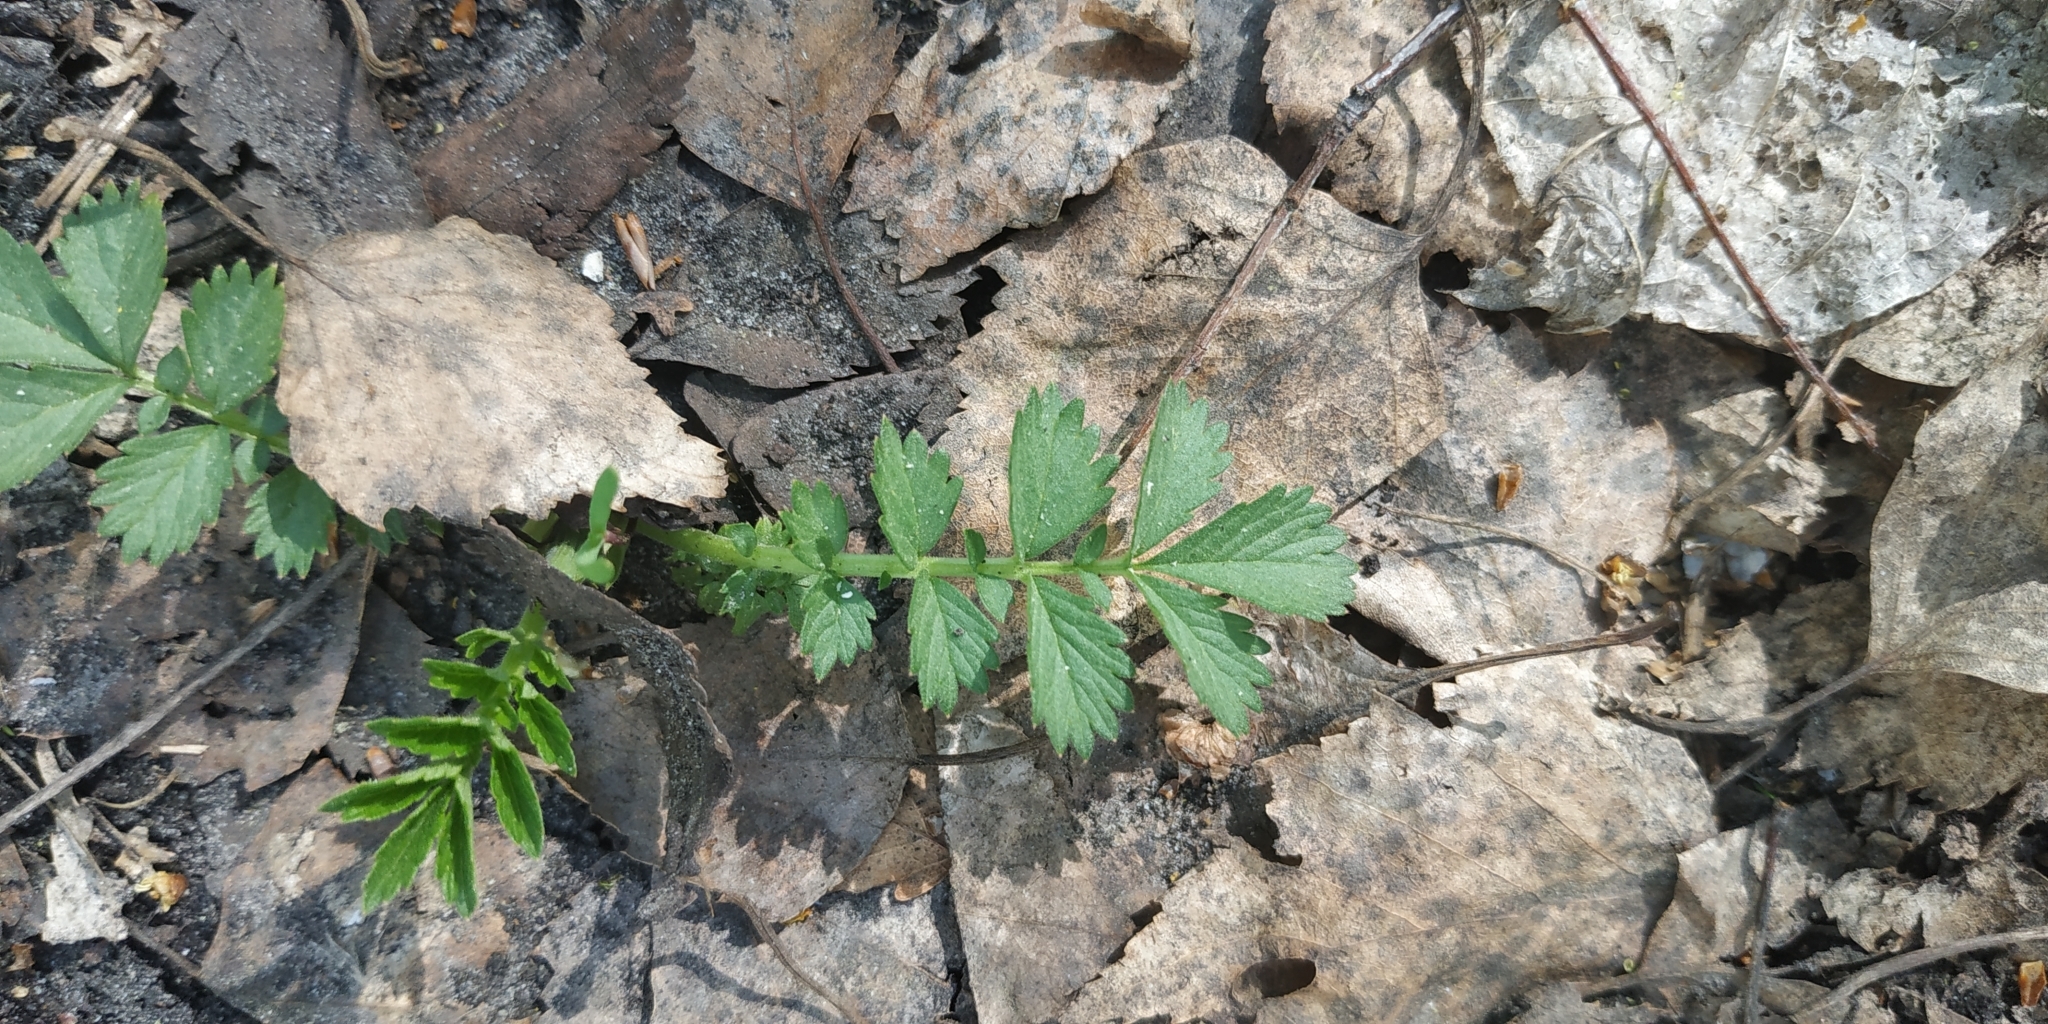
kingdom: Plantae
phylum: Tracheophyta
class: Magnoliopsida
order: Rosales
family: Rosaceae
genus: Agrimonia
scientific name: Agrimonia pilosa
